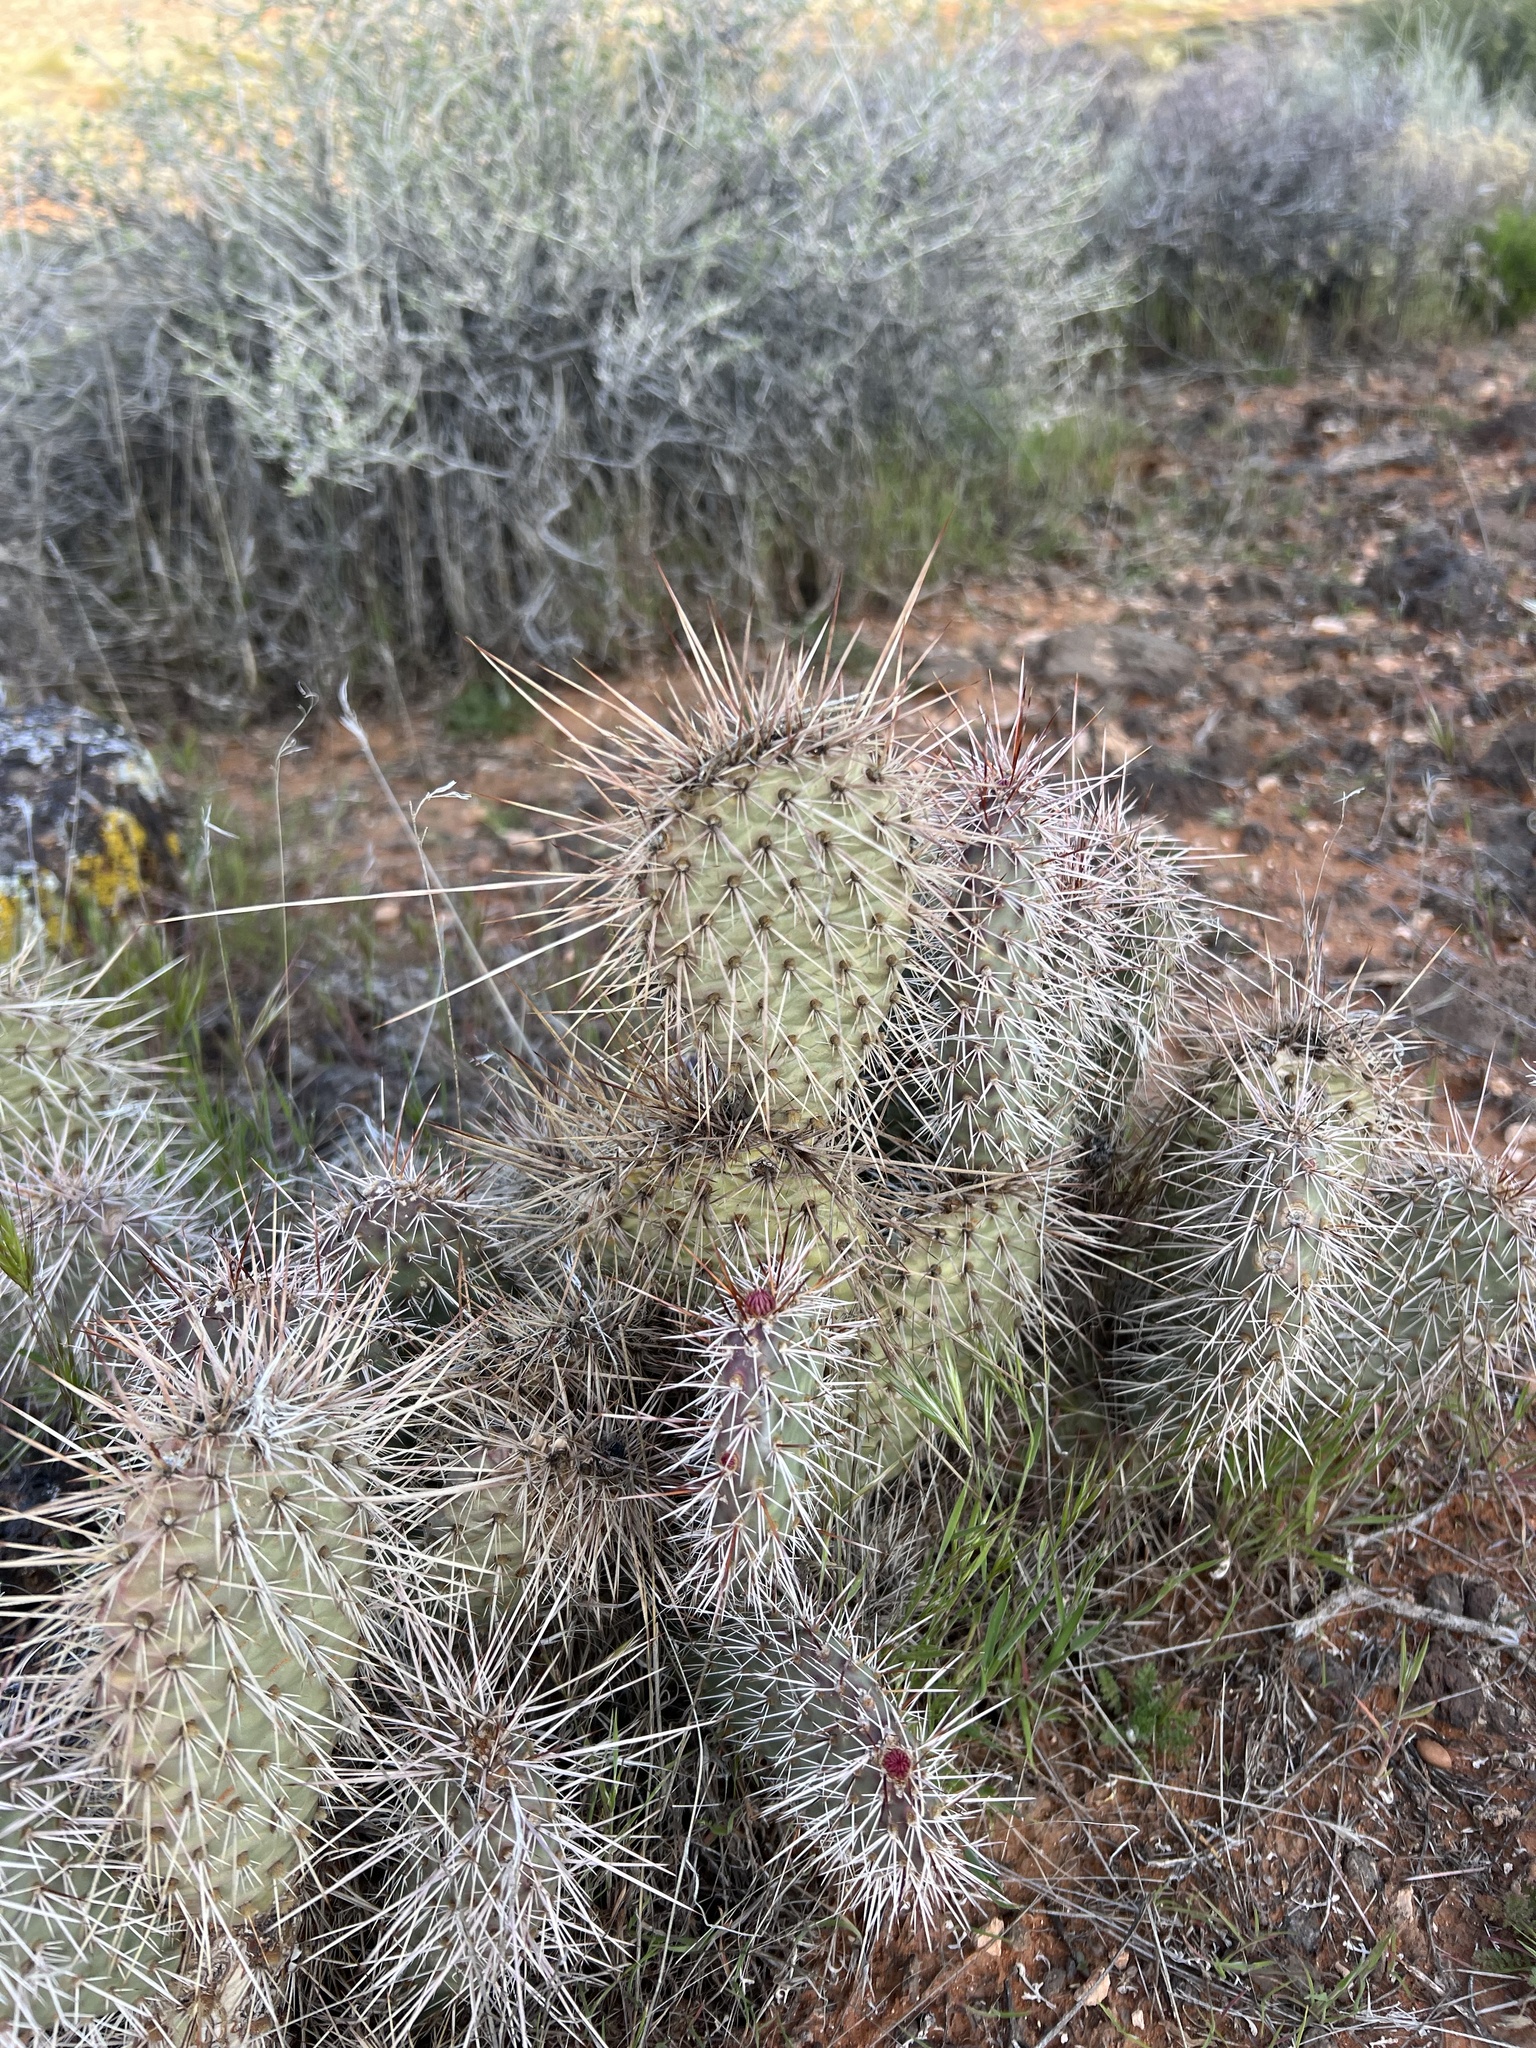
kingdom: Plantae
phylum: Tracheophyta
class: Magnoliopsida
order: Caryophyllales
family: Cactaceae
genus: Opuntia
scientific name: Opuntia polyacantha
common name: Plains prickly-pear
